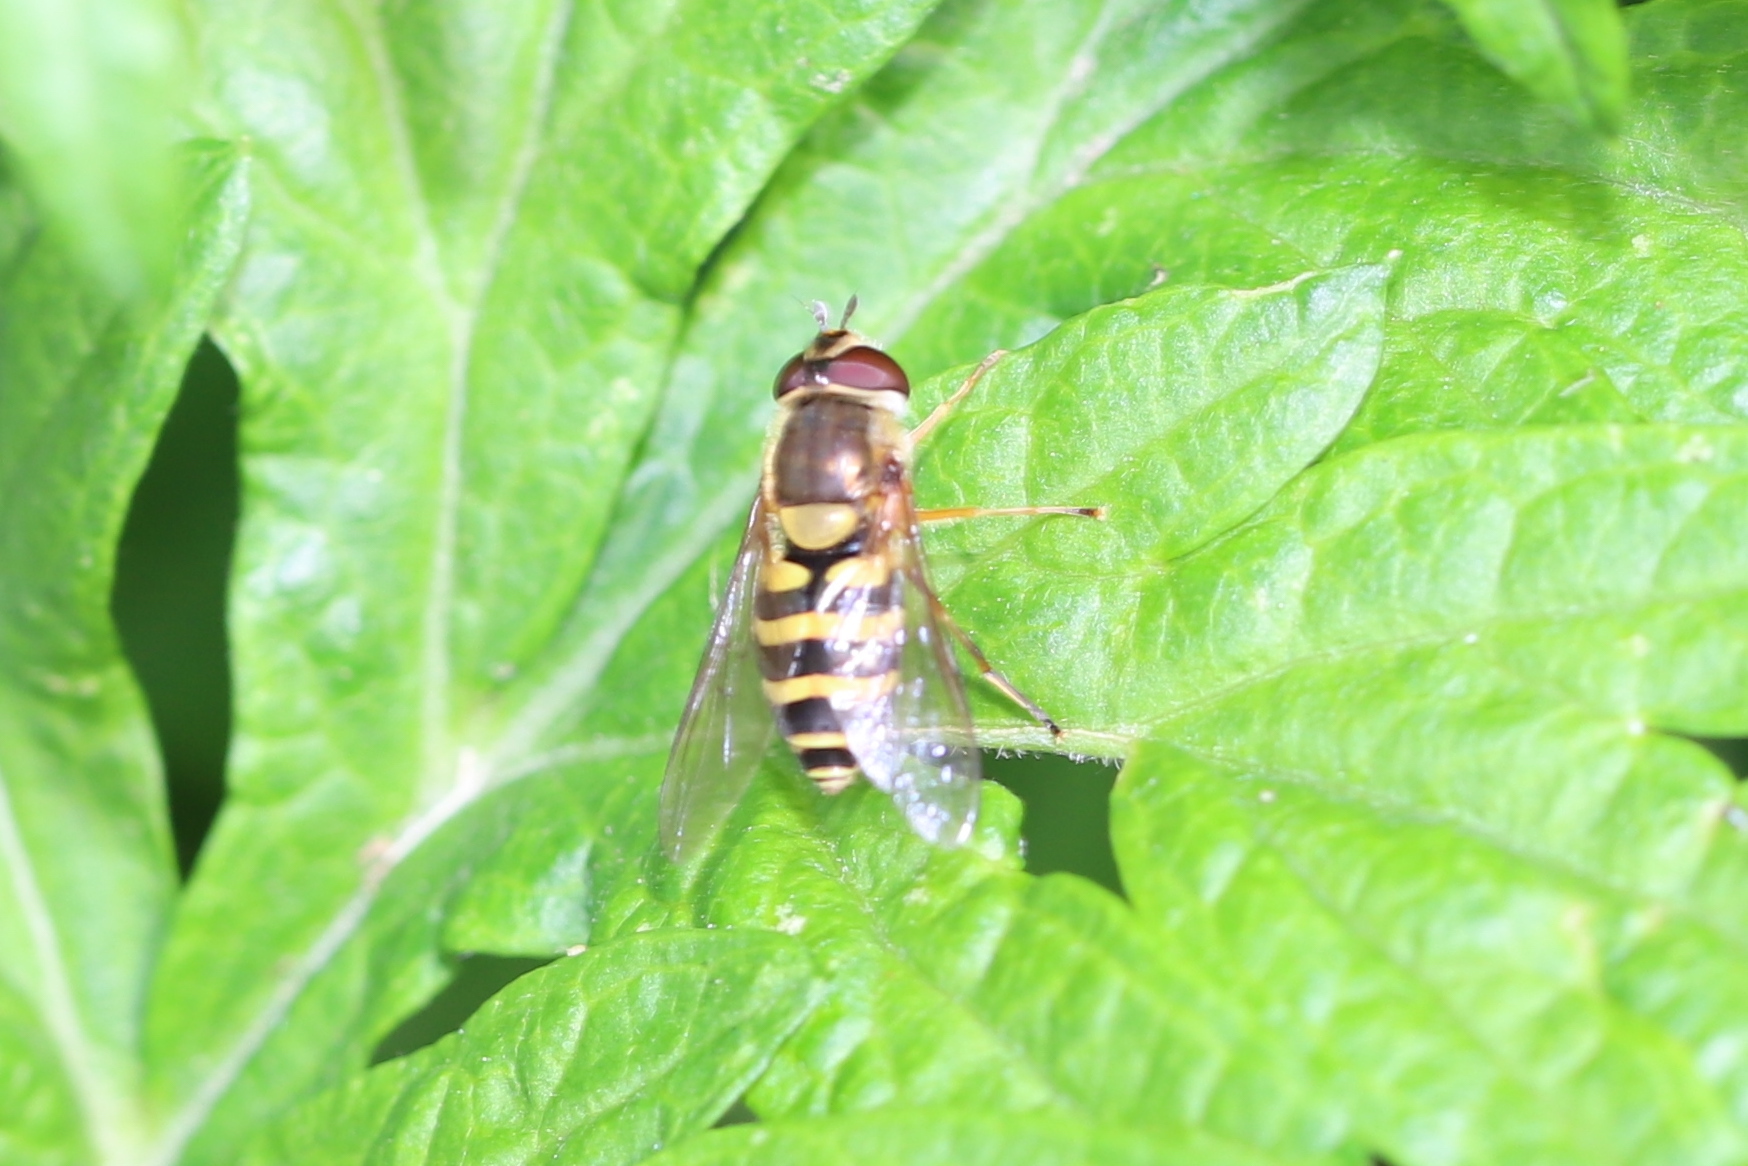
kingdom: Animalia
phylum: Arthropoda
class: Insecta
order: Diptera
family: Syrphidae
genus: Syrphus
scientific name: Syrphus rectus
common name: Yellow-legged flower fly
